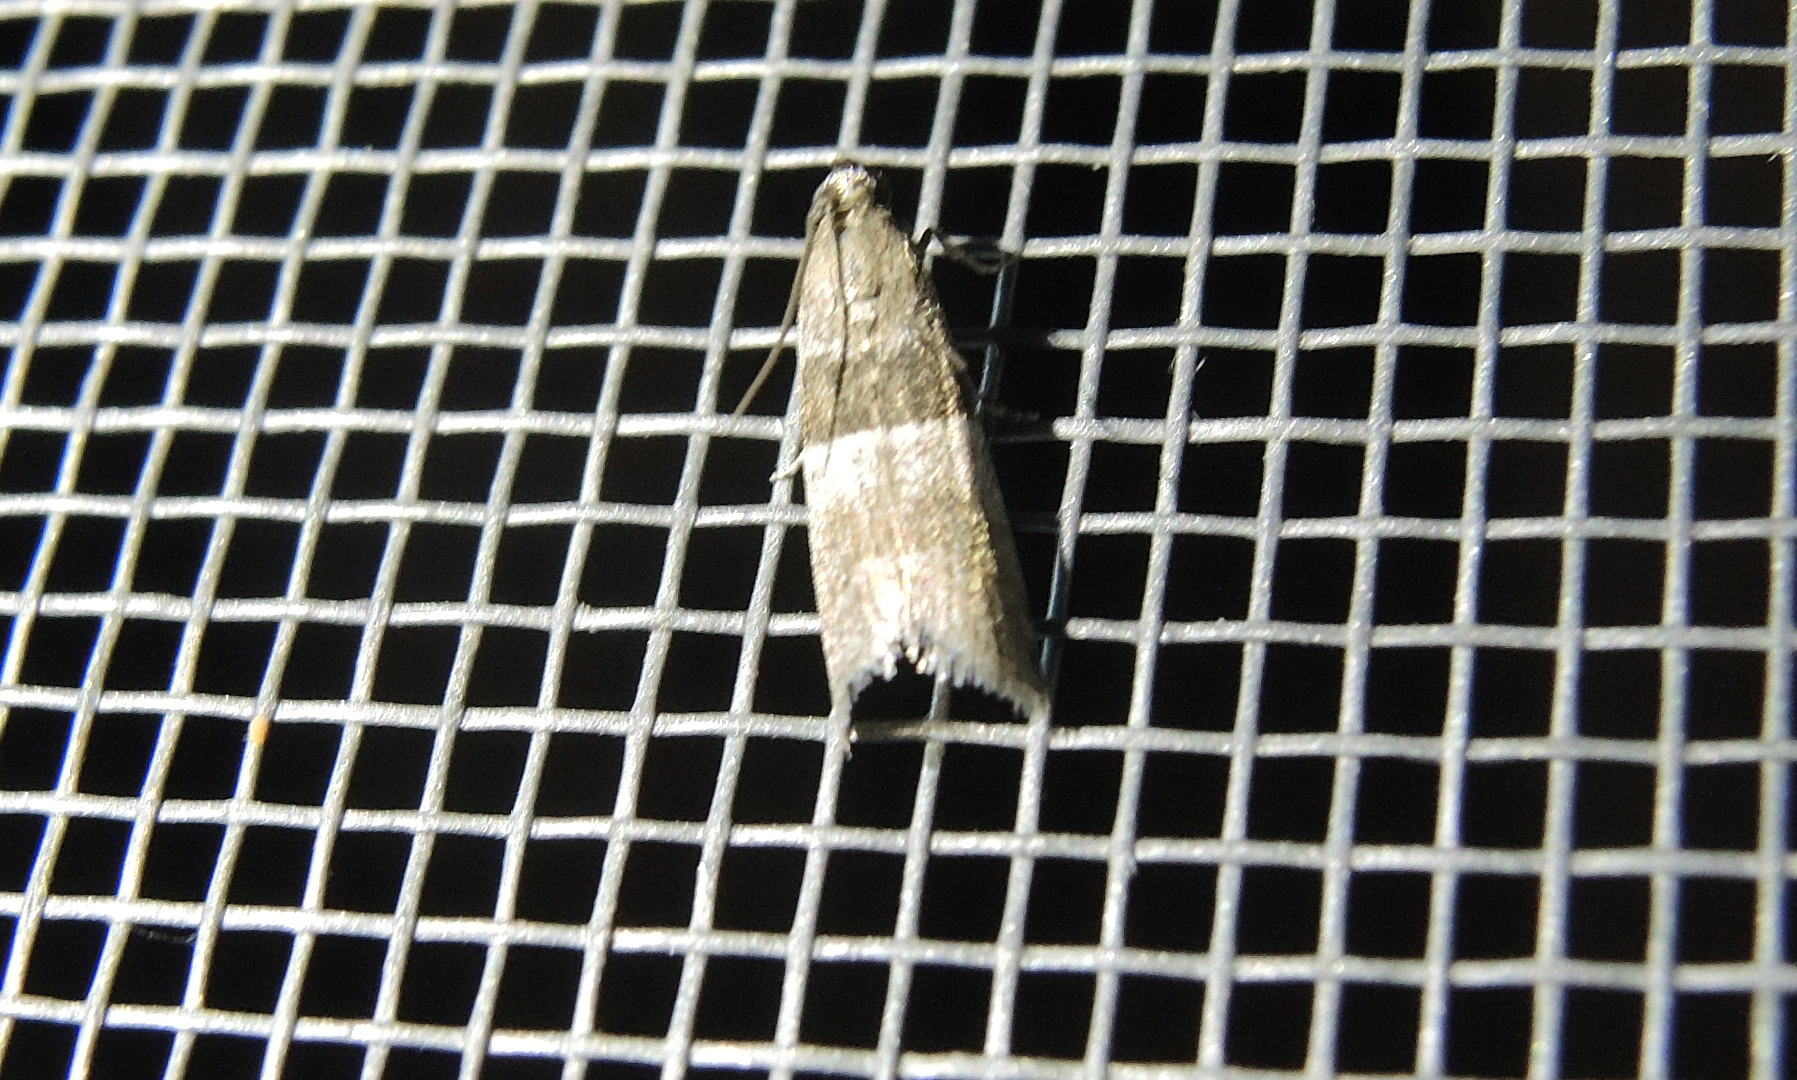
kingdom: Animalia
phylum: Arthropoda
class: Insecta
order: Lepidoptera
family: Pyralidae
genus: Elegia
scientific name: Elegia atrifasciella
